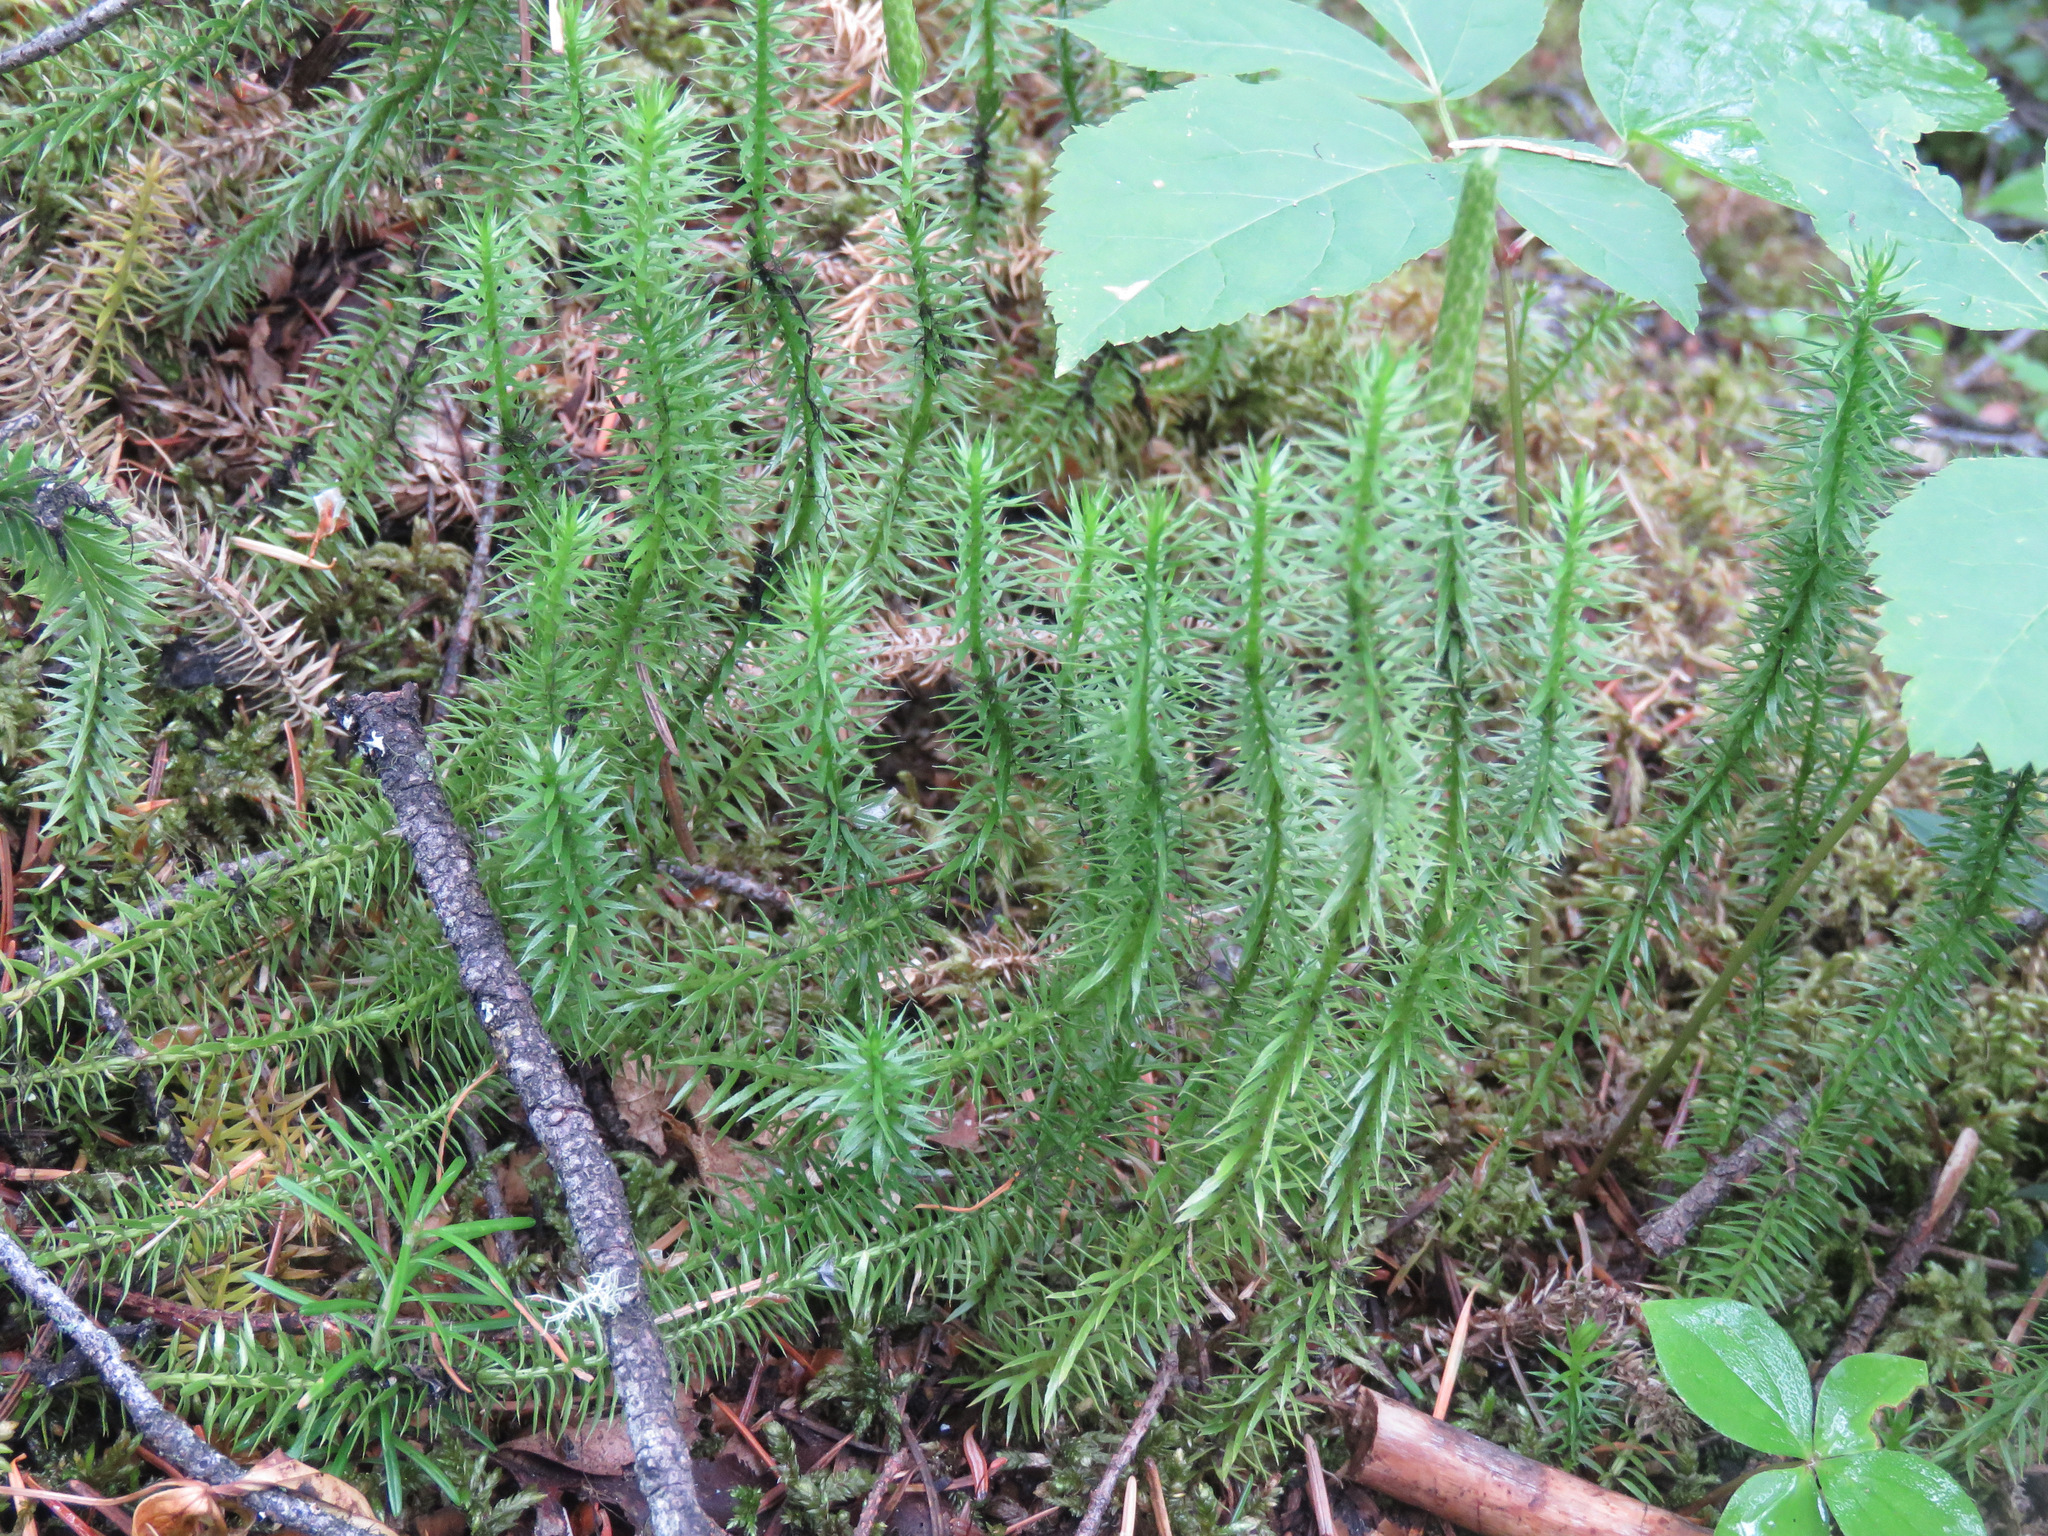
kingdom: Plantae
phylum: Tracheophyta
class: Lycopodiopsida
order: Lycopodiales
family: Lycopodiaceae
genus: Spinulum
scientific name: Spinulum annotinum
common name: Interrupted club-moss
